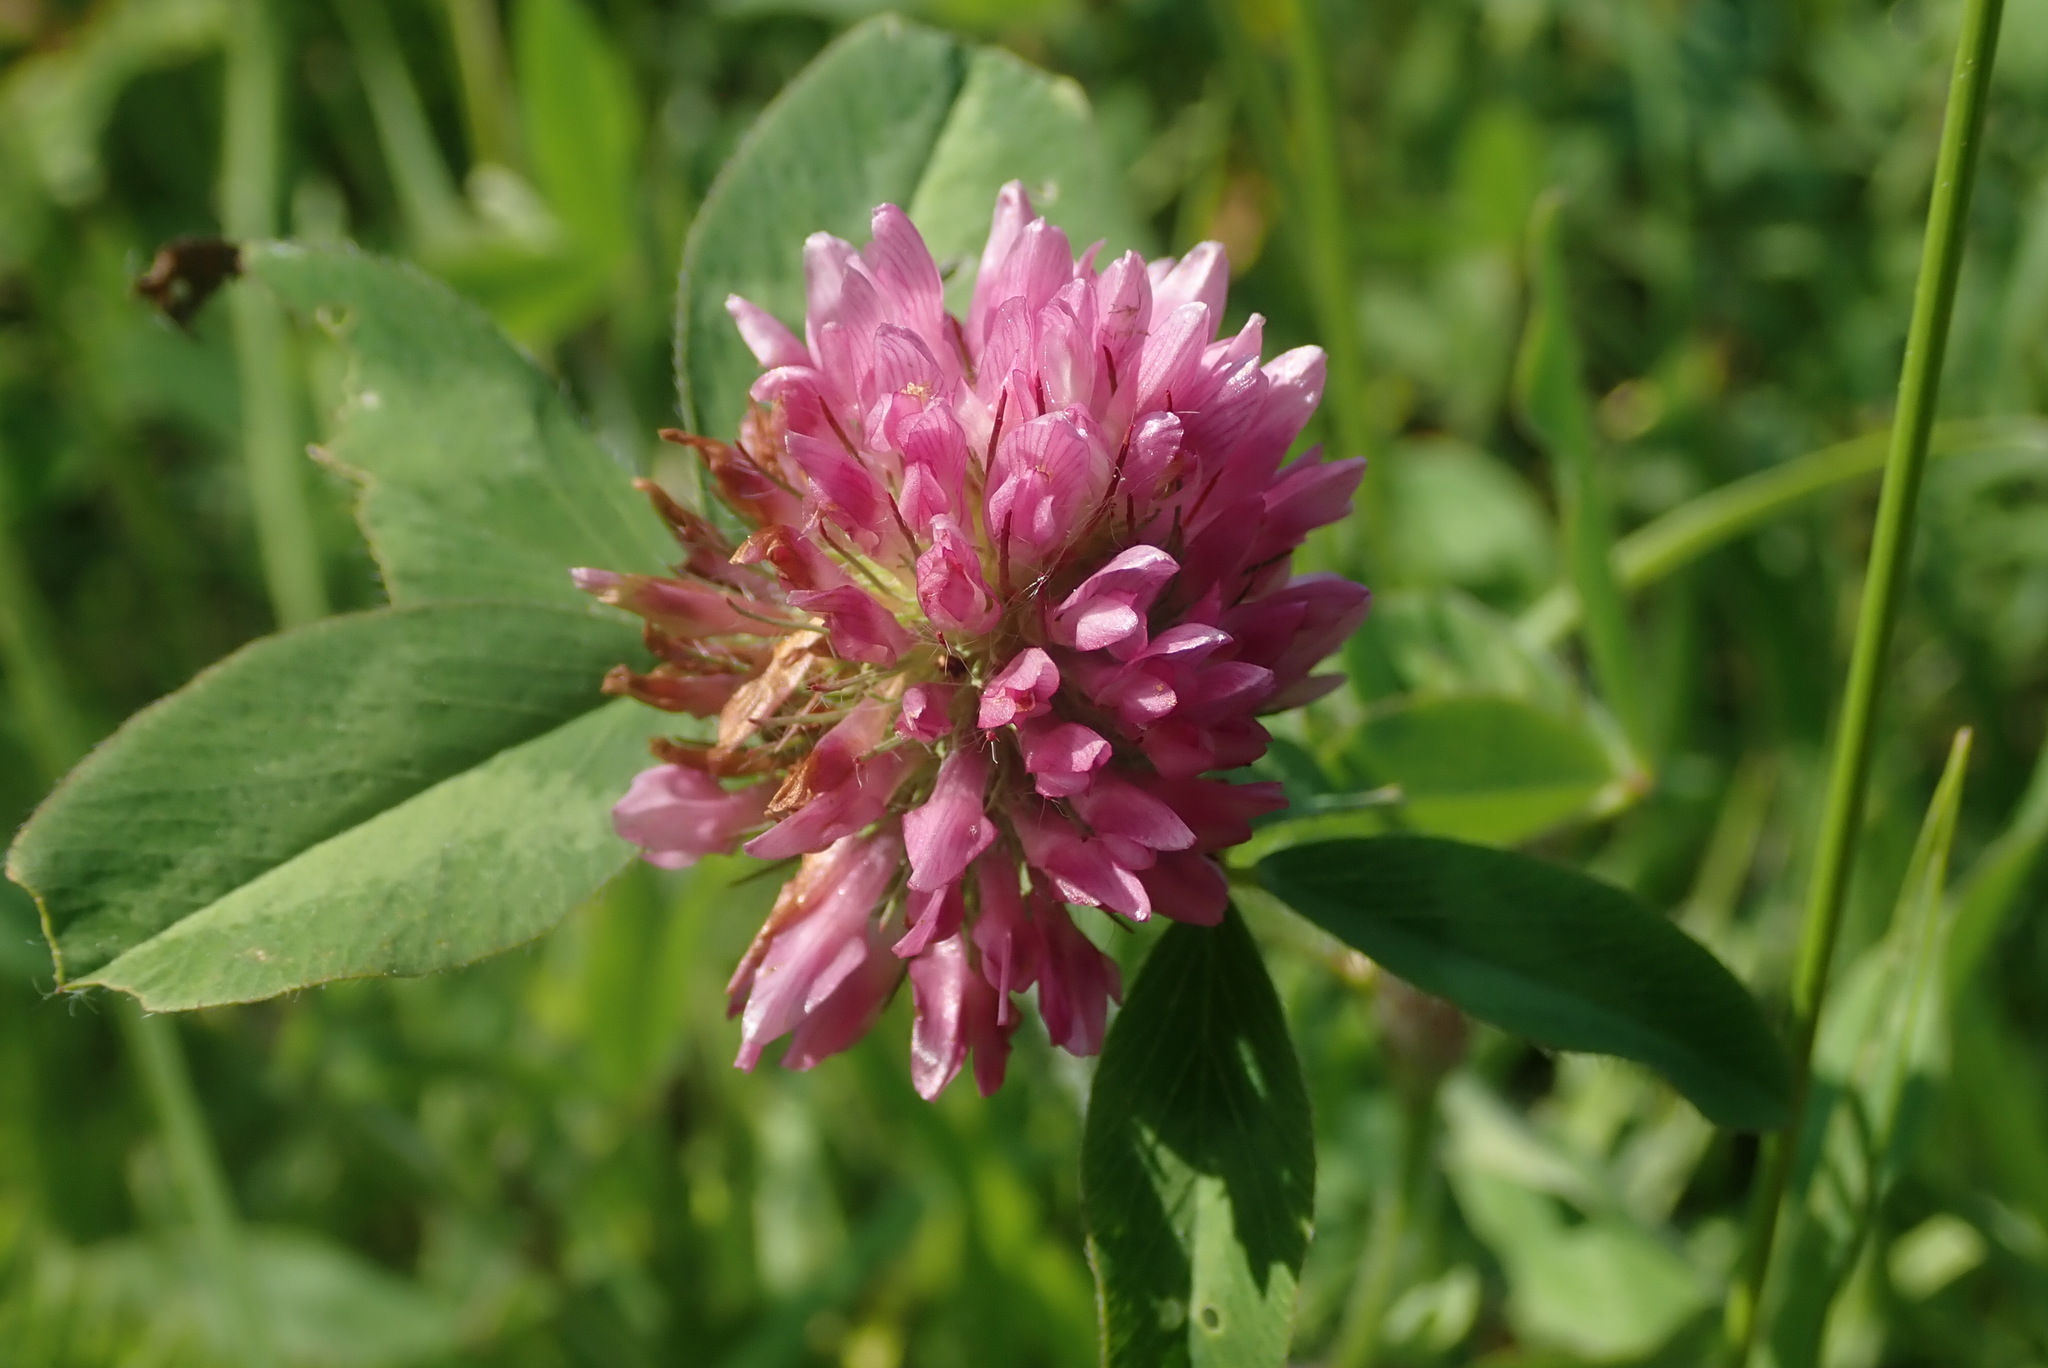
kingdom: Plantae
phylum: Tracheophyta
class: Magnoliopsida
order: Fabales
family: Fabaceae
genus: Trifolium
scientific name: Trifolium pratense
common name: Red clover
